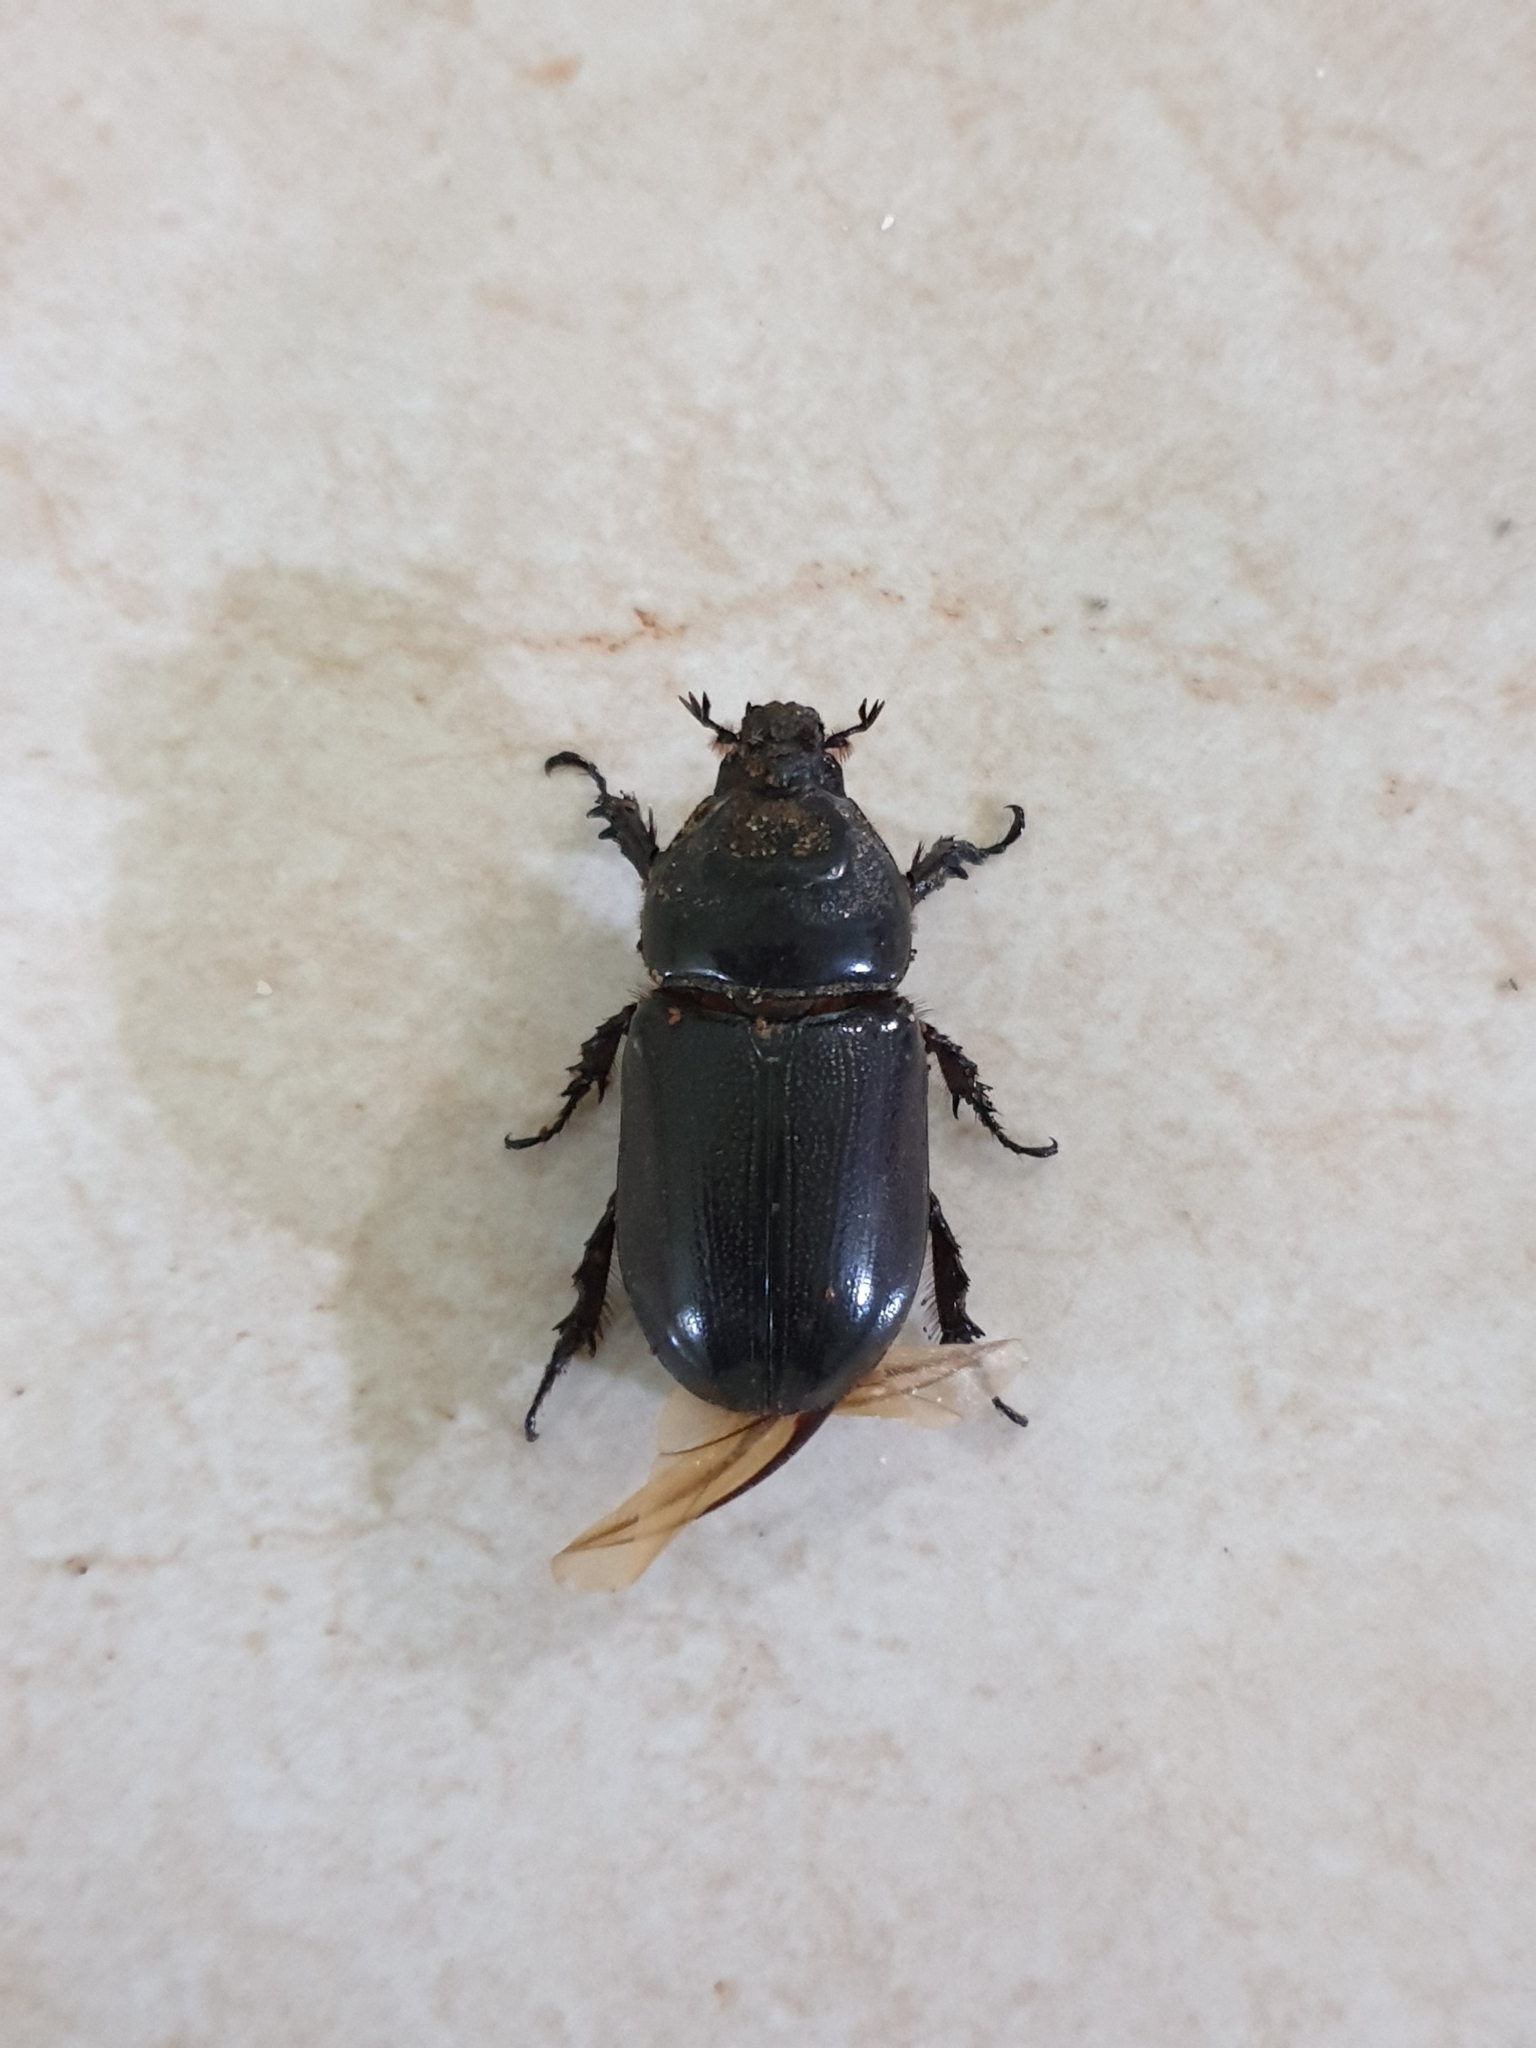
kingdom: Animalia
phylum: Arthropoda
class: Insecta
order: Coleoptera
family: Scarabaeidae
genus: Oryctes
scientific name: Oryctes rhinoceros
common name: Coconut rhinoceros beetle
